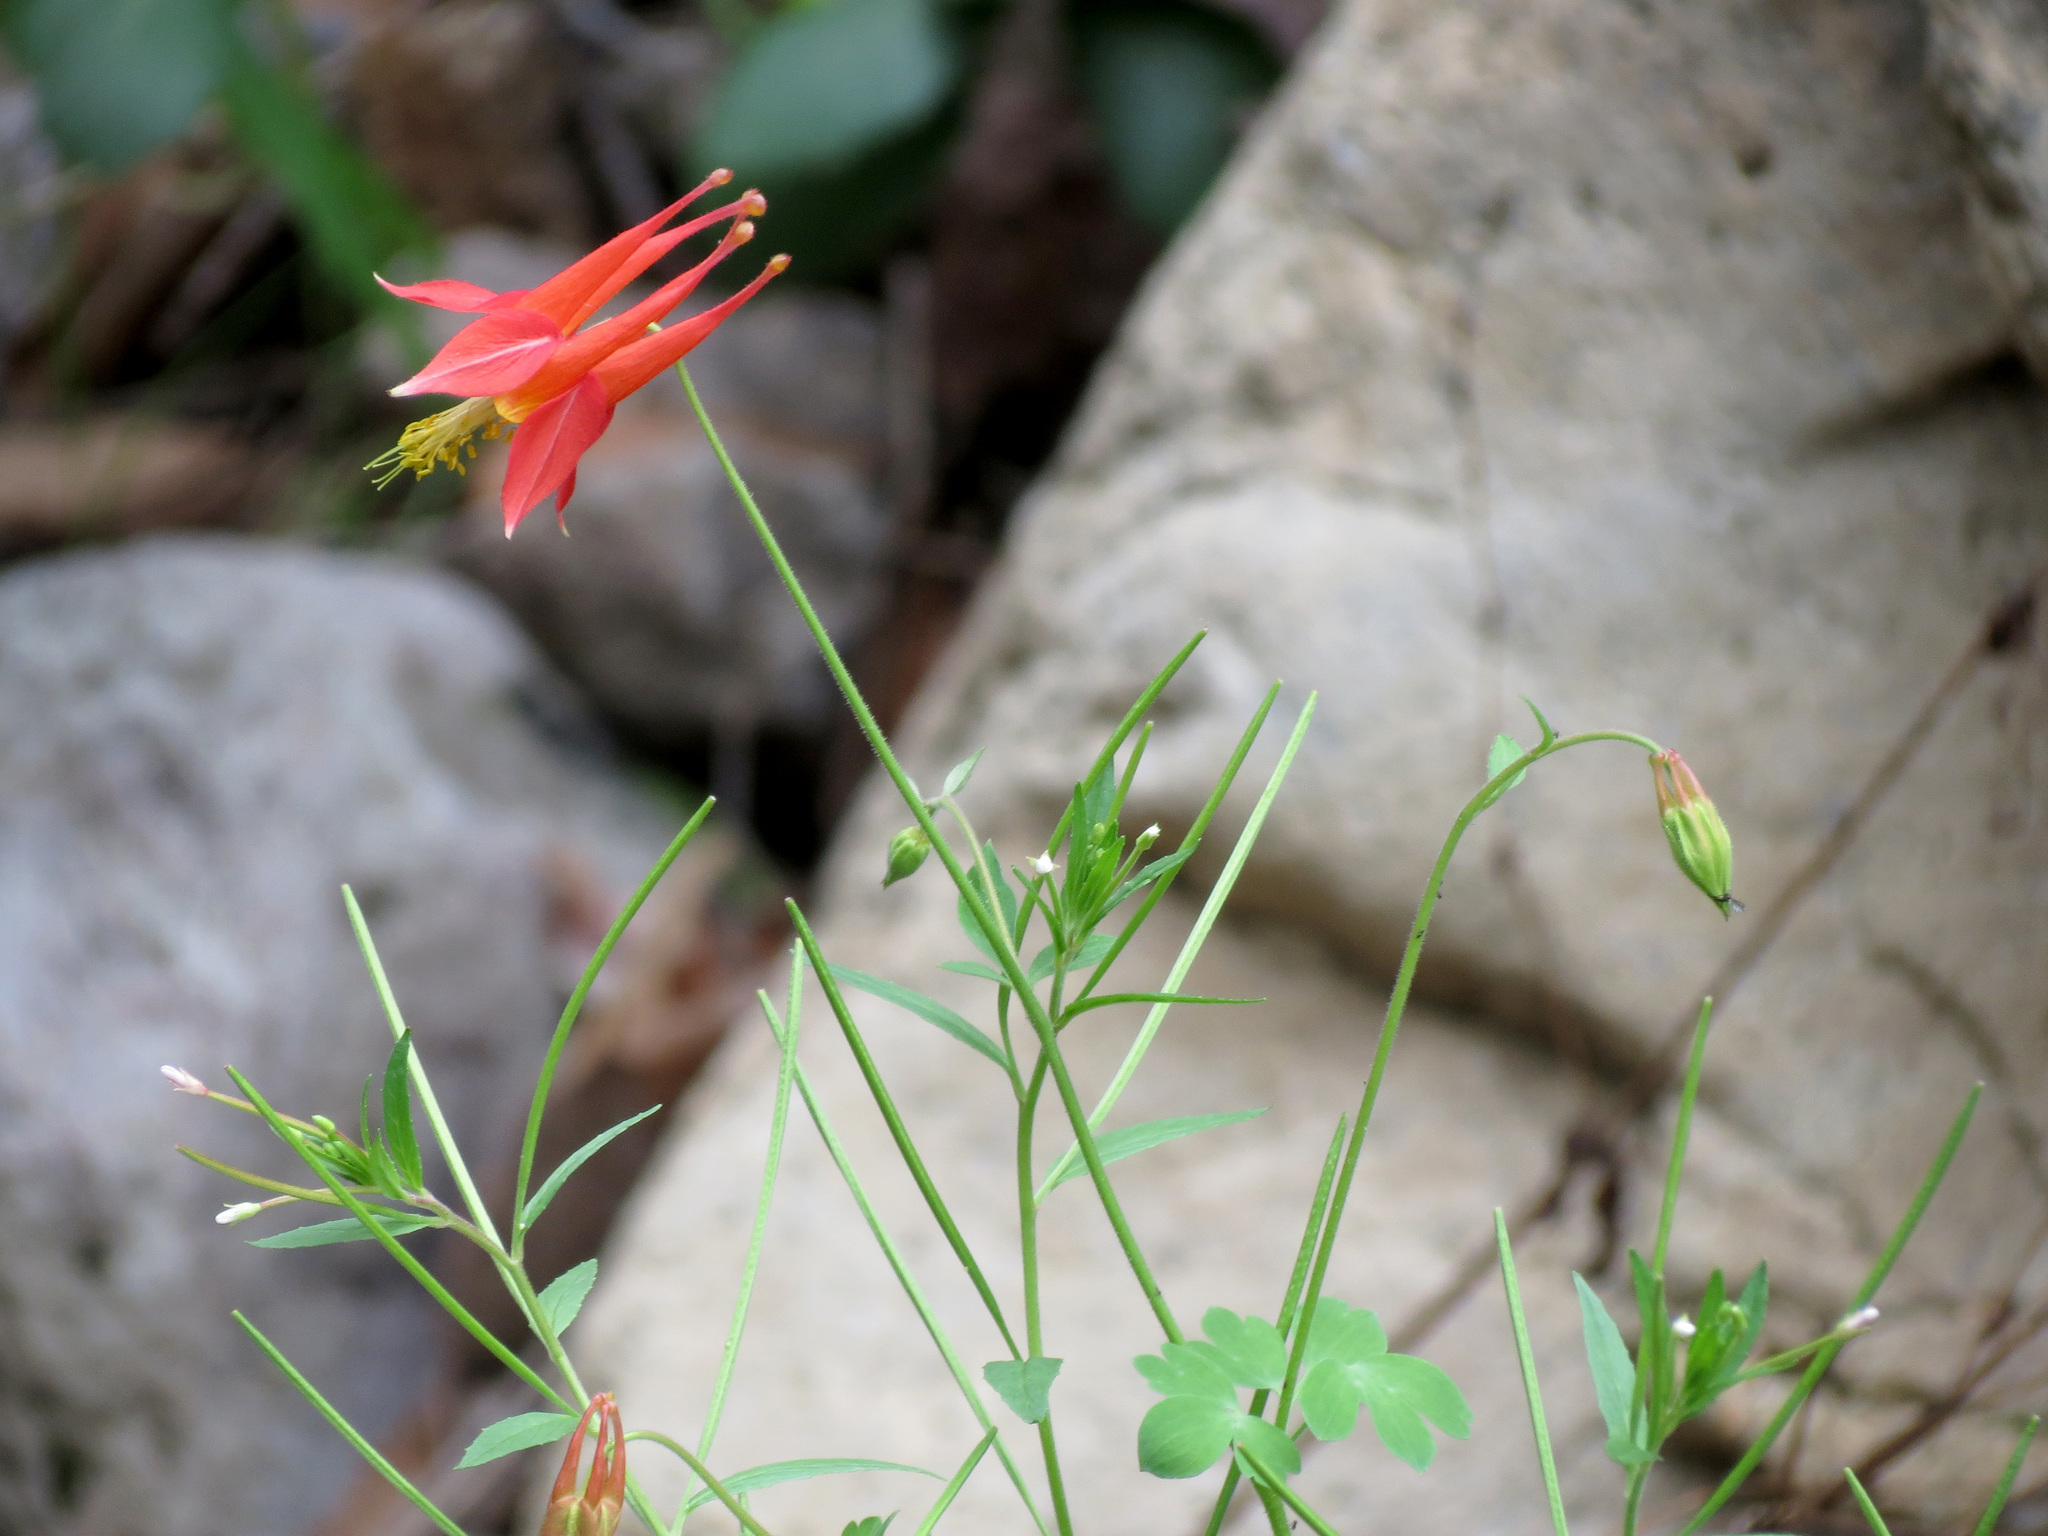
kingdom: Plantae
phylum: Tracheophyta
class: Magnoliopsida
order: Ranunculales
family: Ranunculaceae
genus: Aquilegia
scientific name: Aquilegia desertorum
